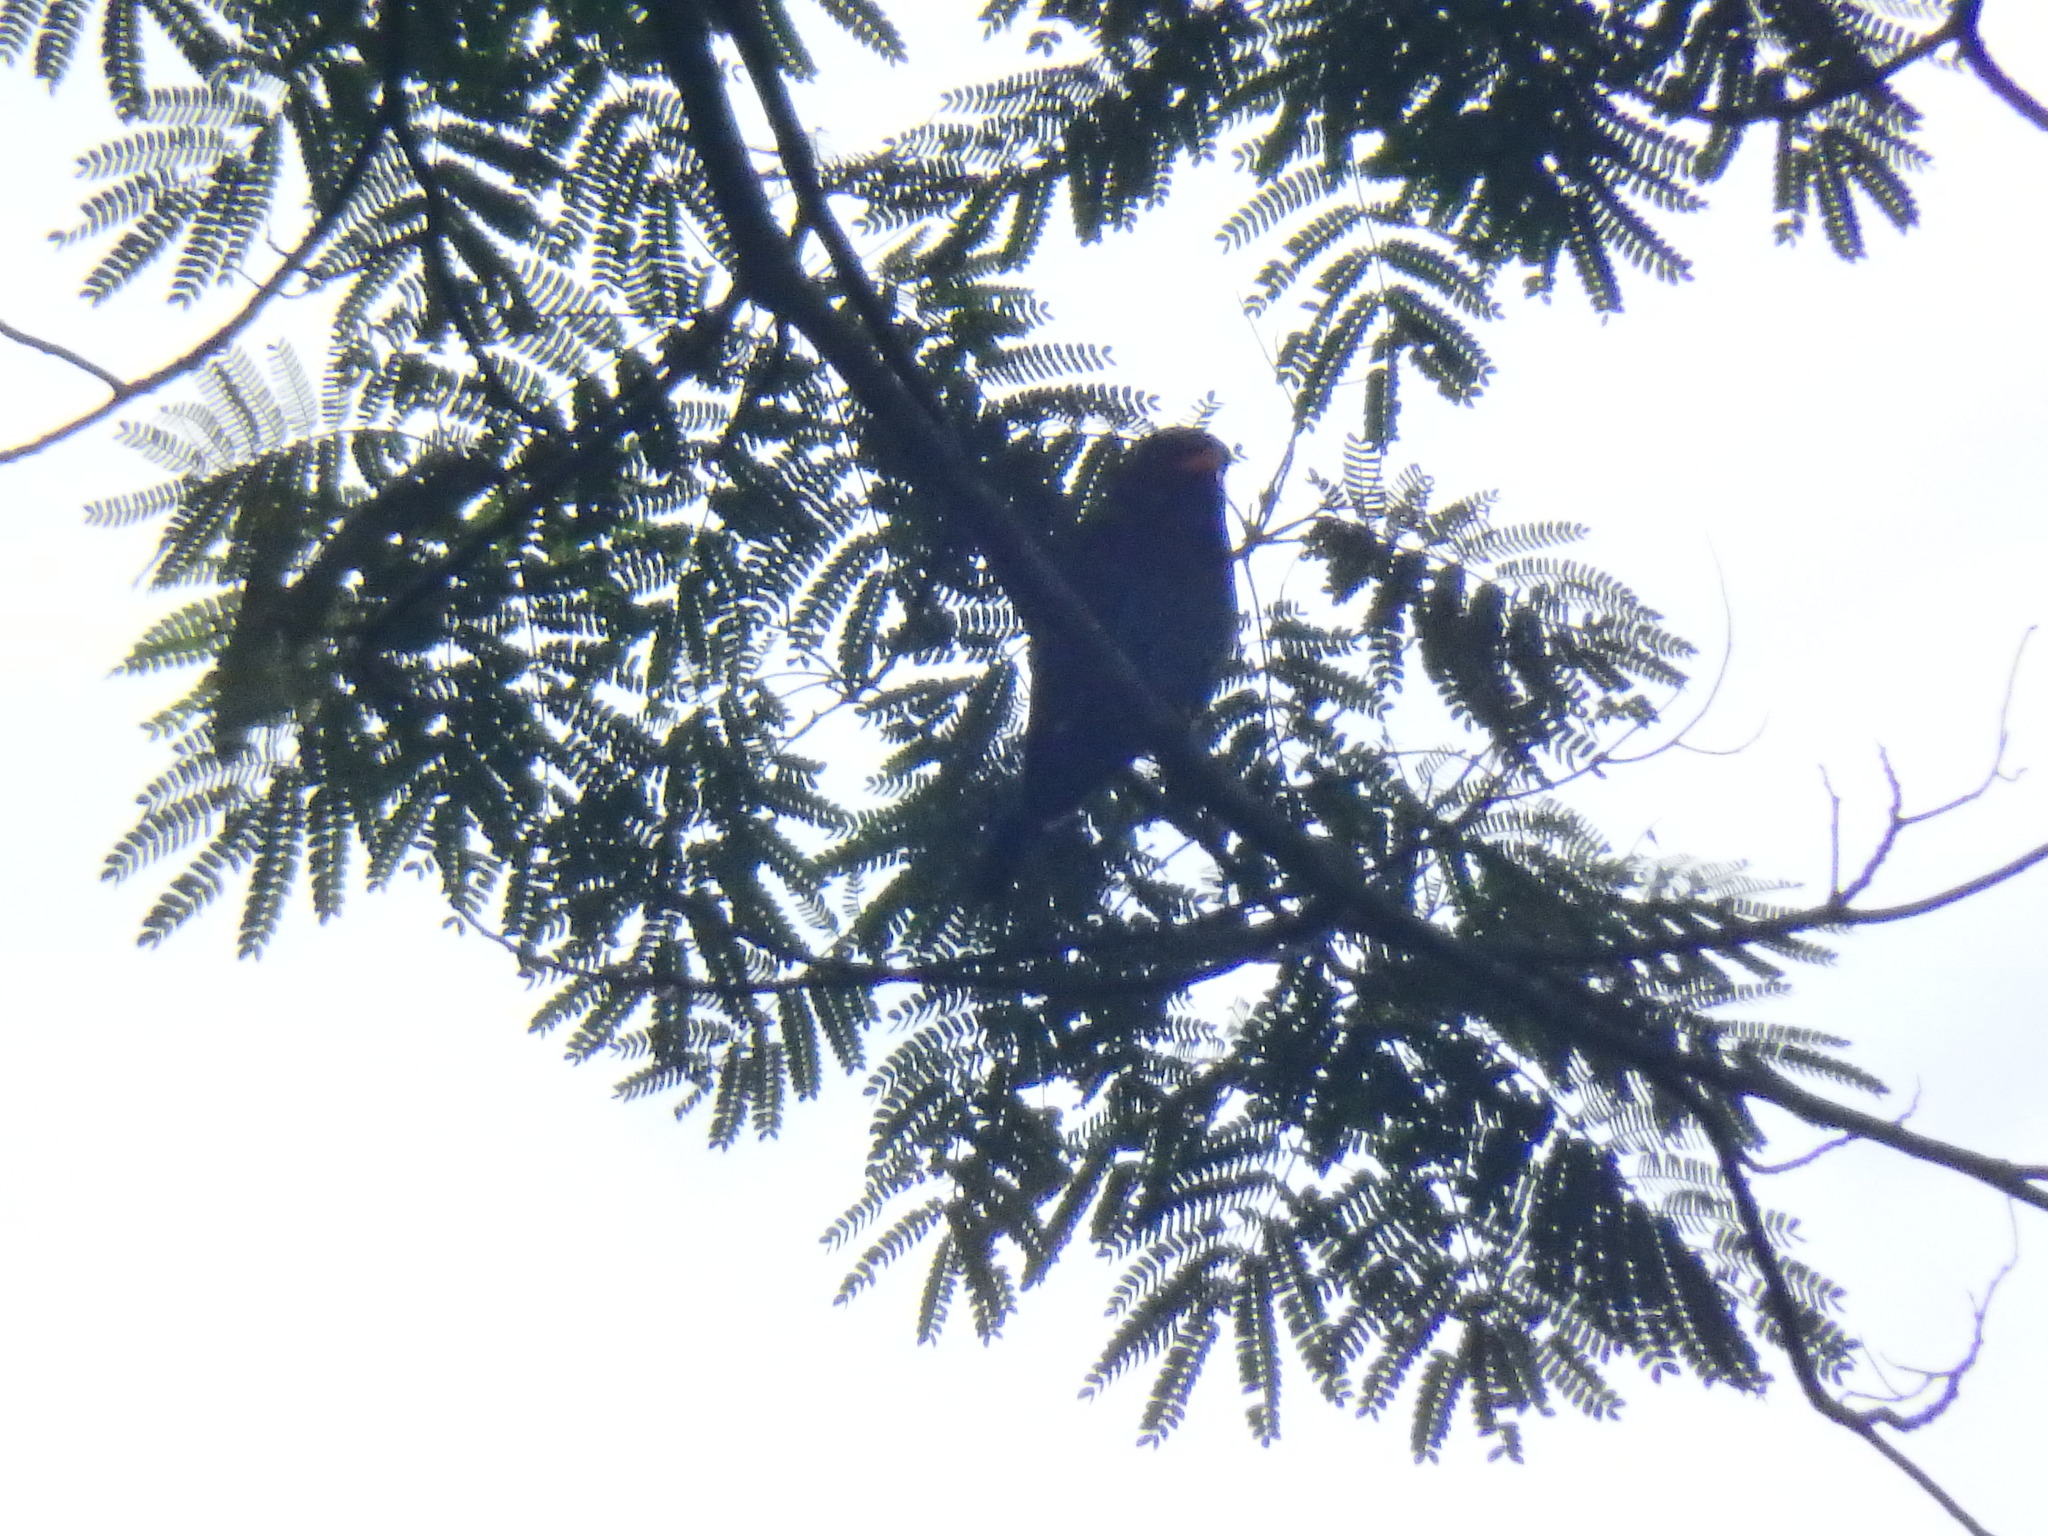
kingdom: Animalia
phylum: Chordata
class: Aves
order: Coraciiformes
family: Coraciidae
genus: Eurystomus
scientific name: Eurystomus orientalis
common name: Oriental dollarbird
